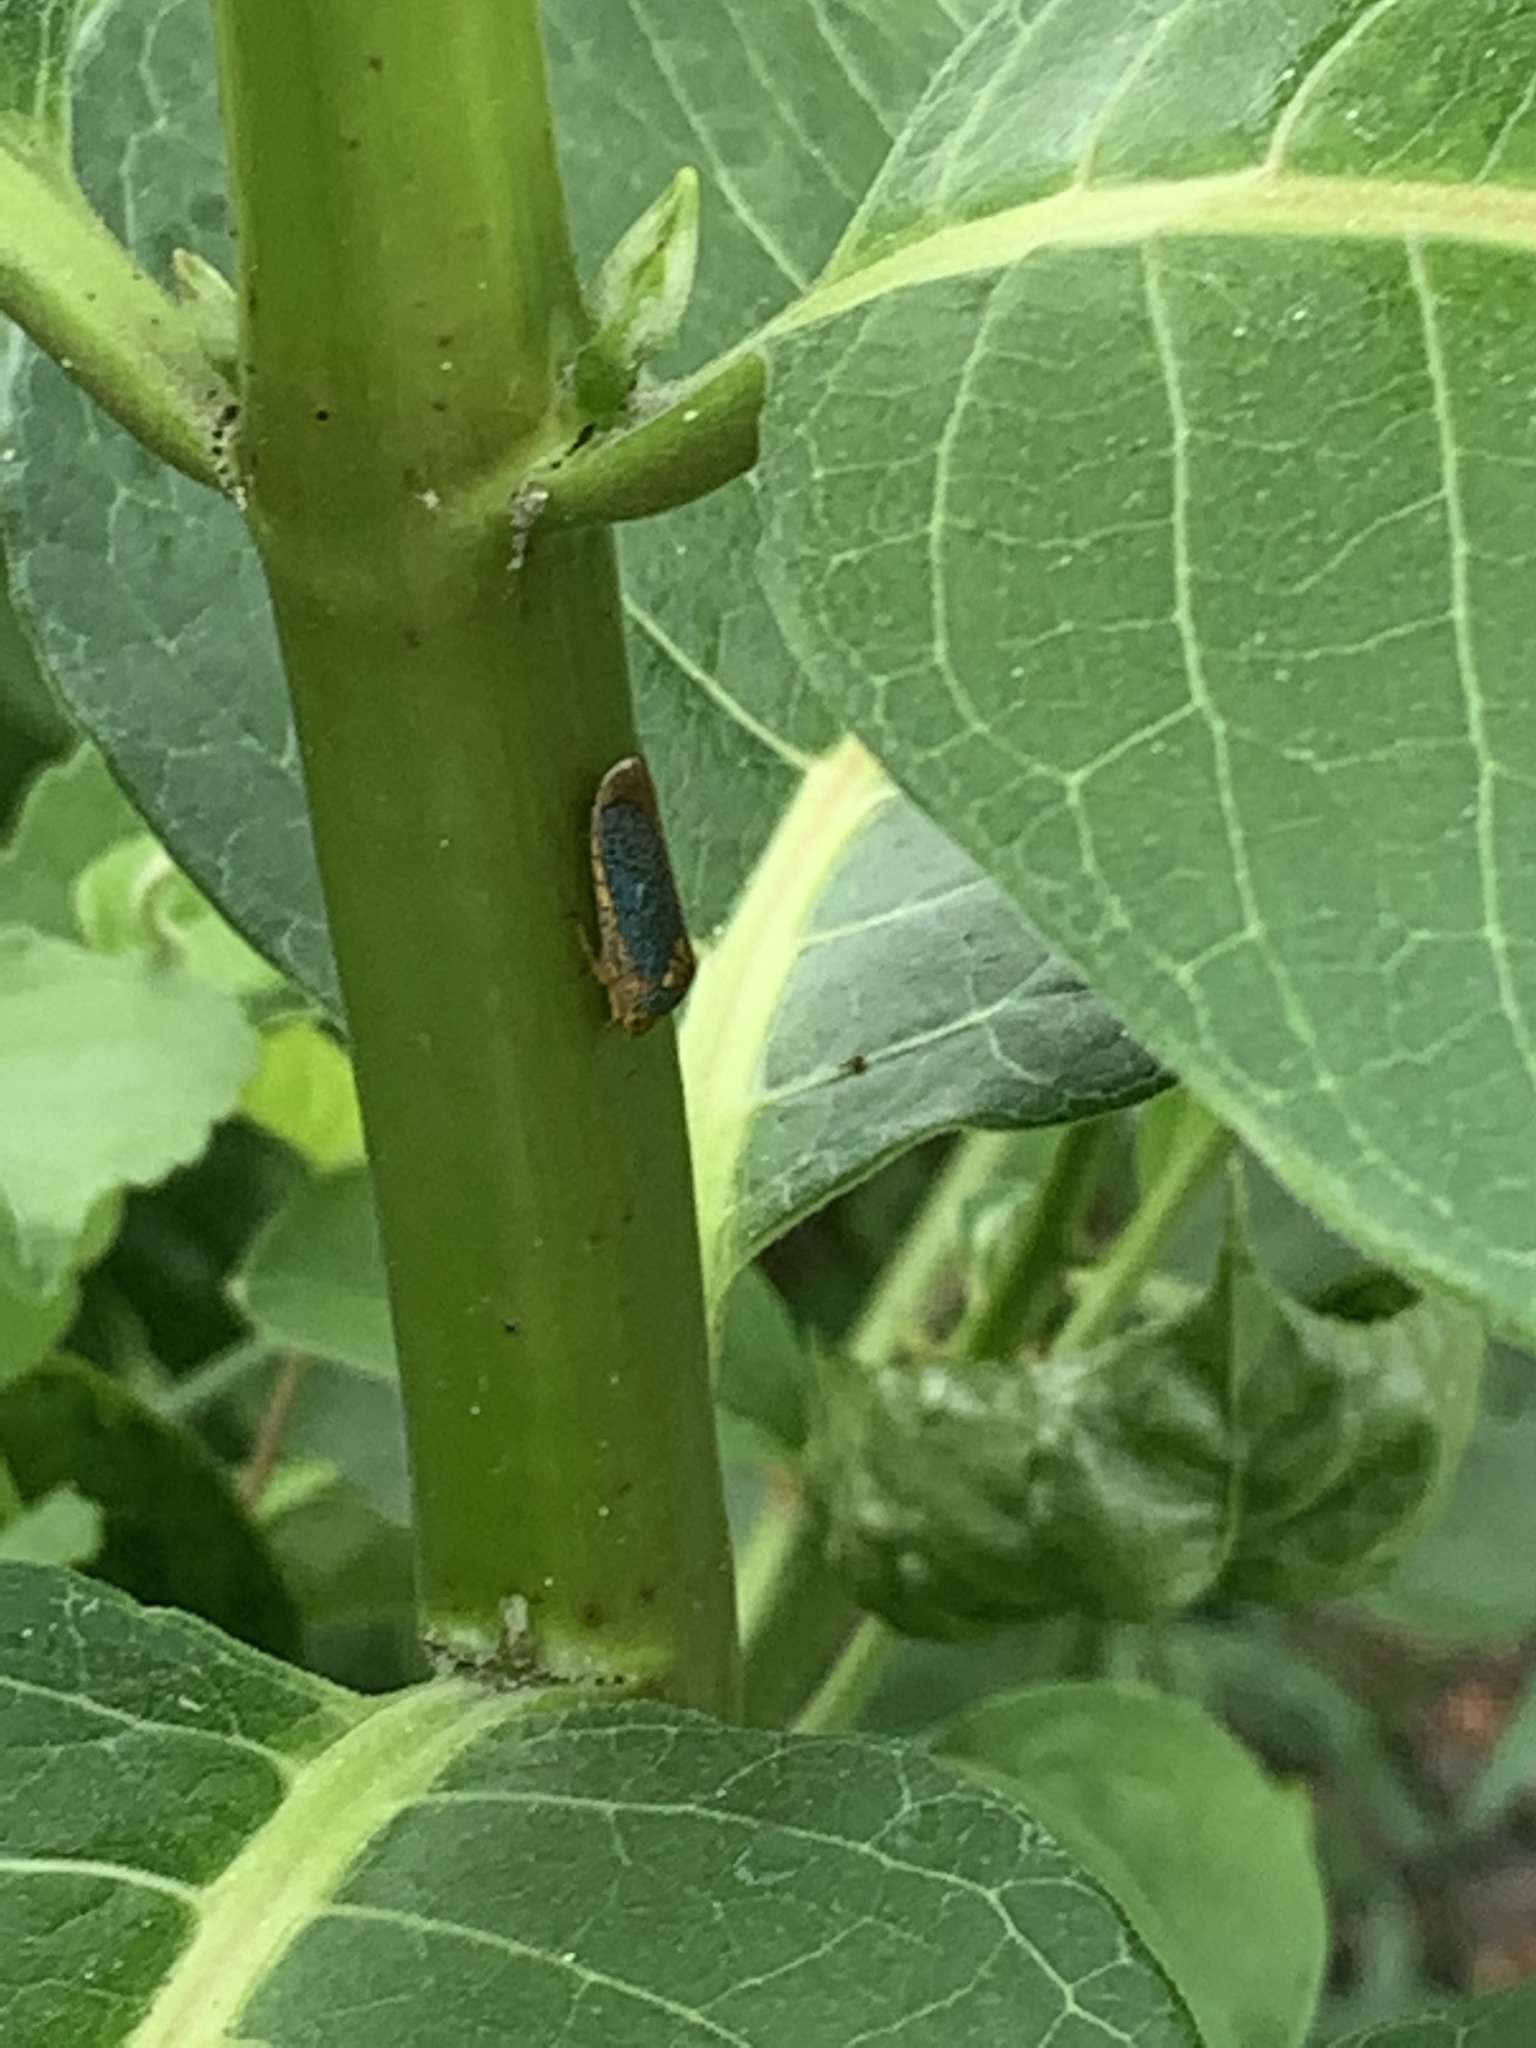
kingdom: Animalia
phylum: Arthropoda
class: Insecta
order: Hemiptera
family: Cicadellidae
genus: Oncometopia
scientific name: Oncometopia orbona
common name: Broad-headed sharpshooter
